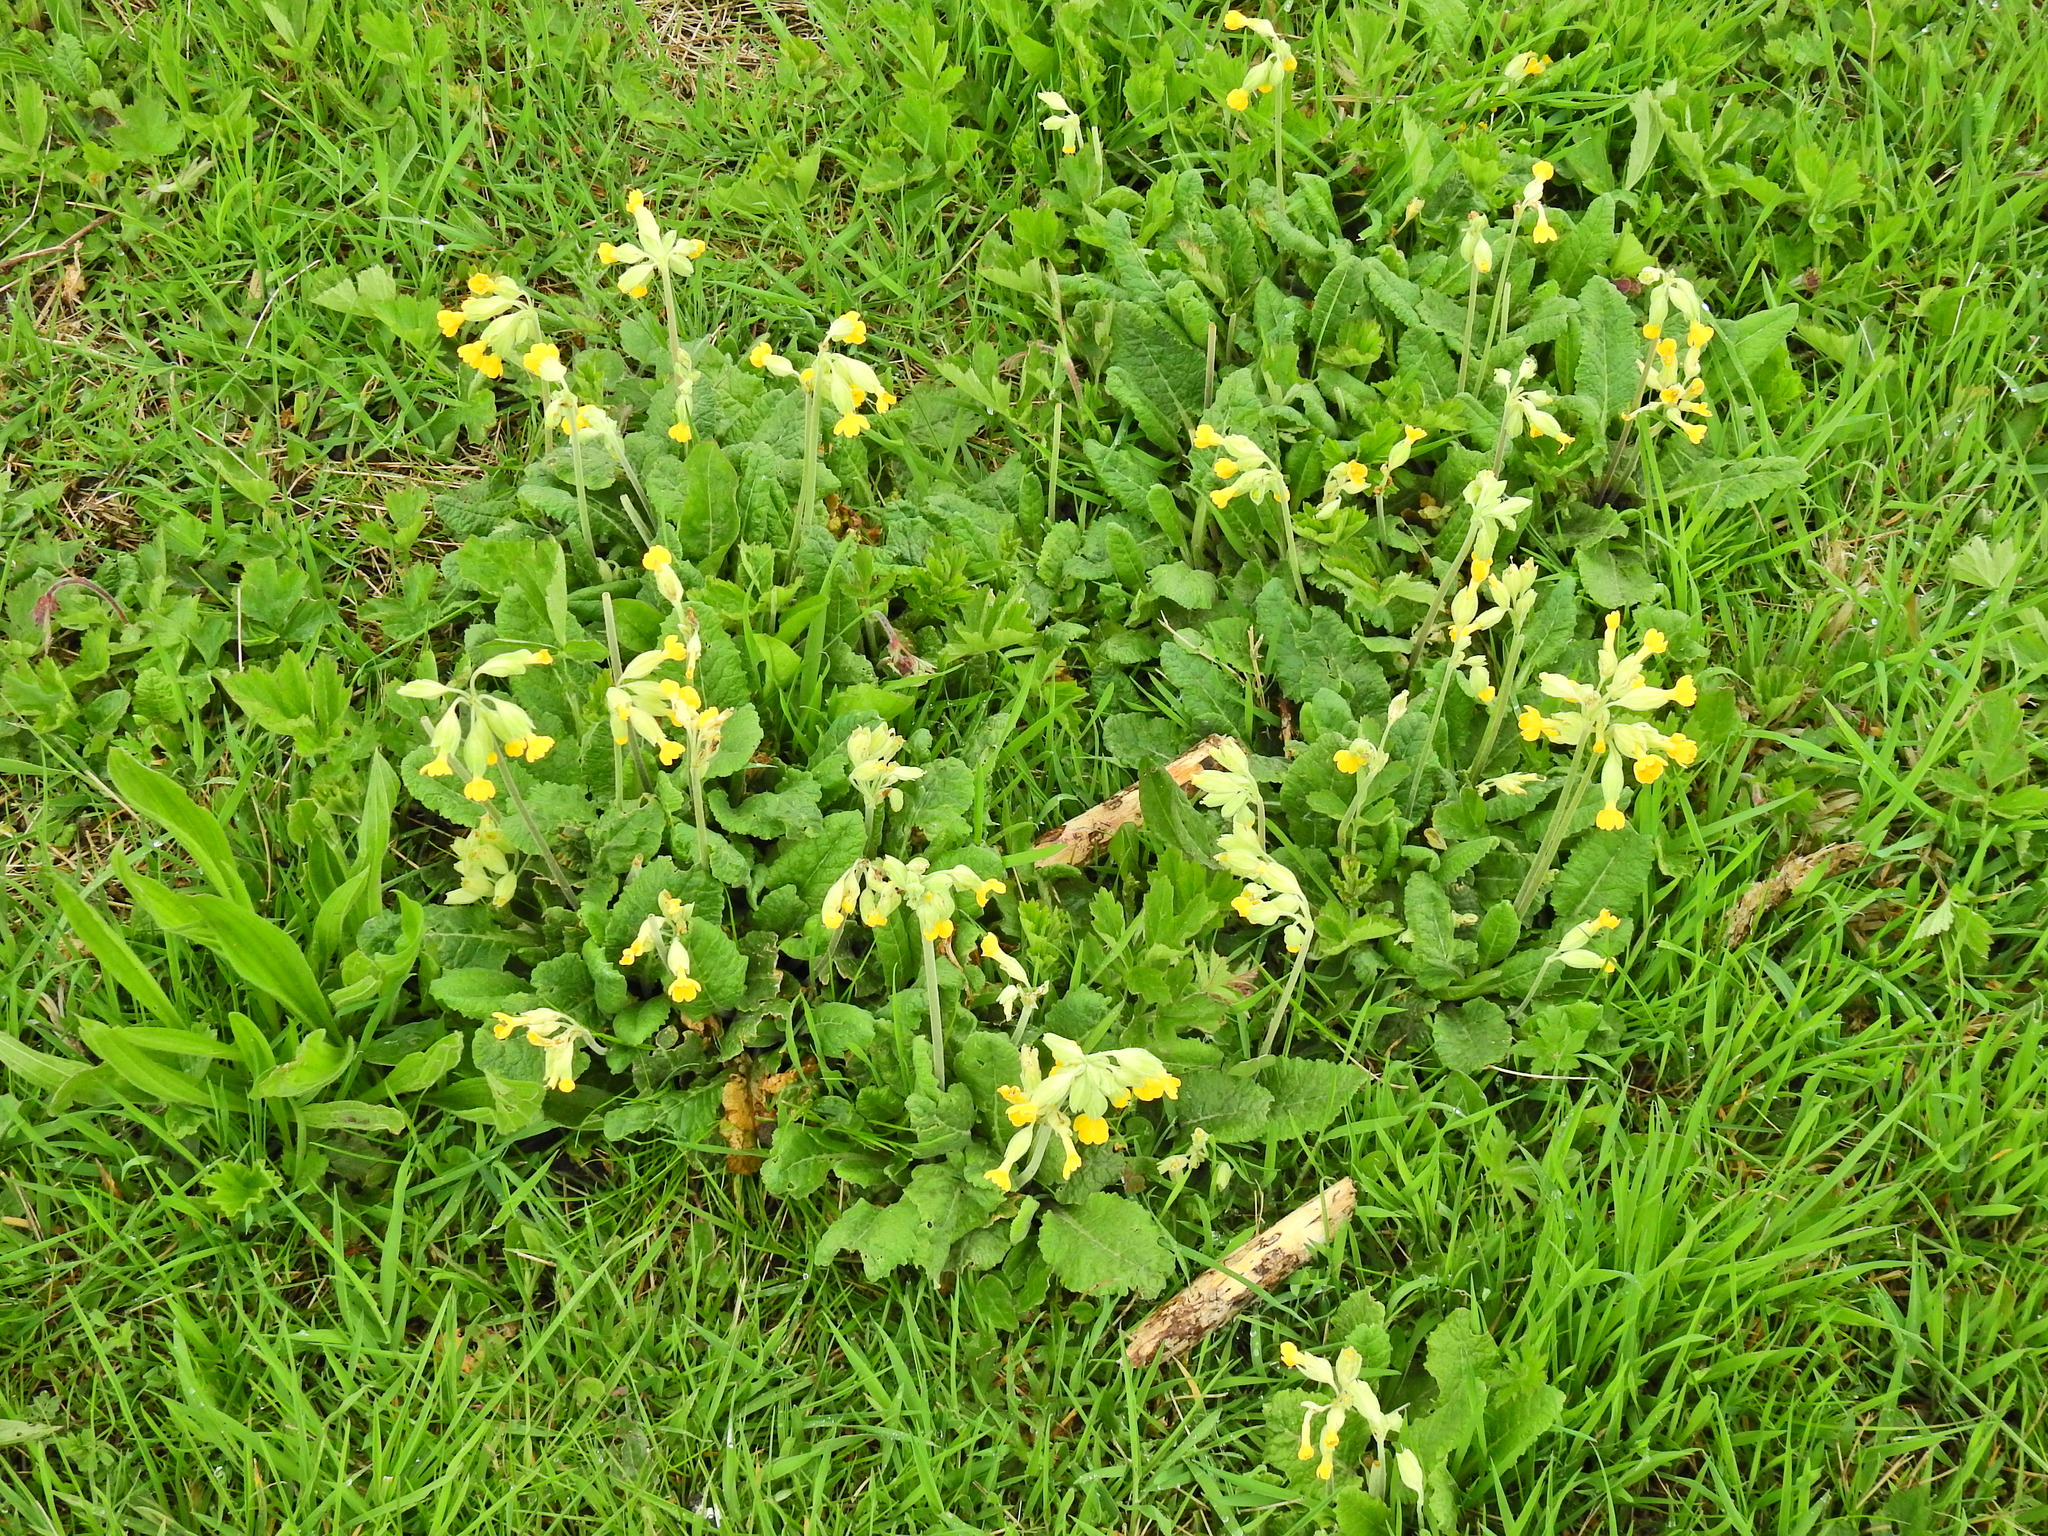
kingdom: Plantae
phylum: Tracheophyta
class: Magnoliopsida
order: Ericales
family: Primulaceae
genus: Primula
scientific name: Primula veris
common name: Cowslip
